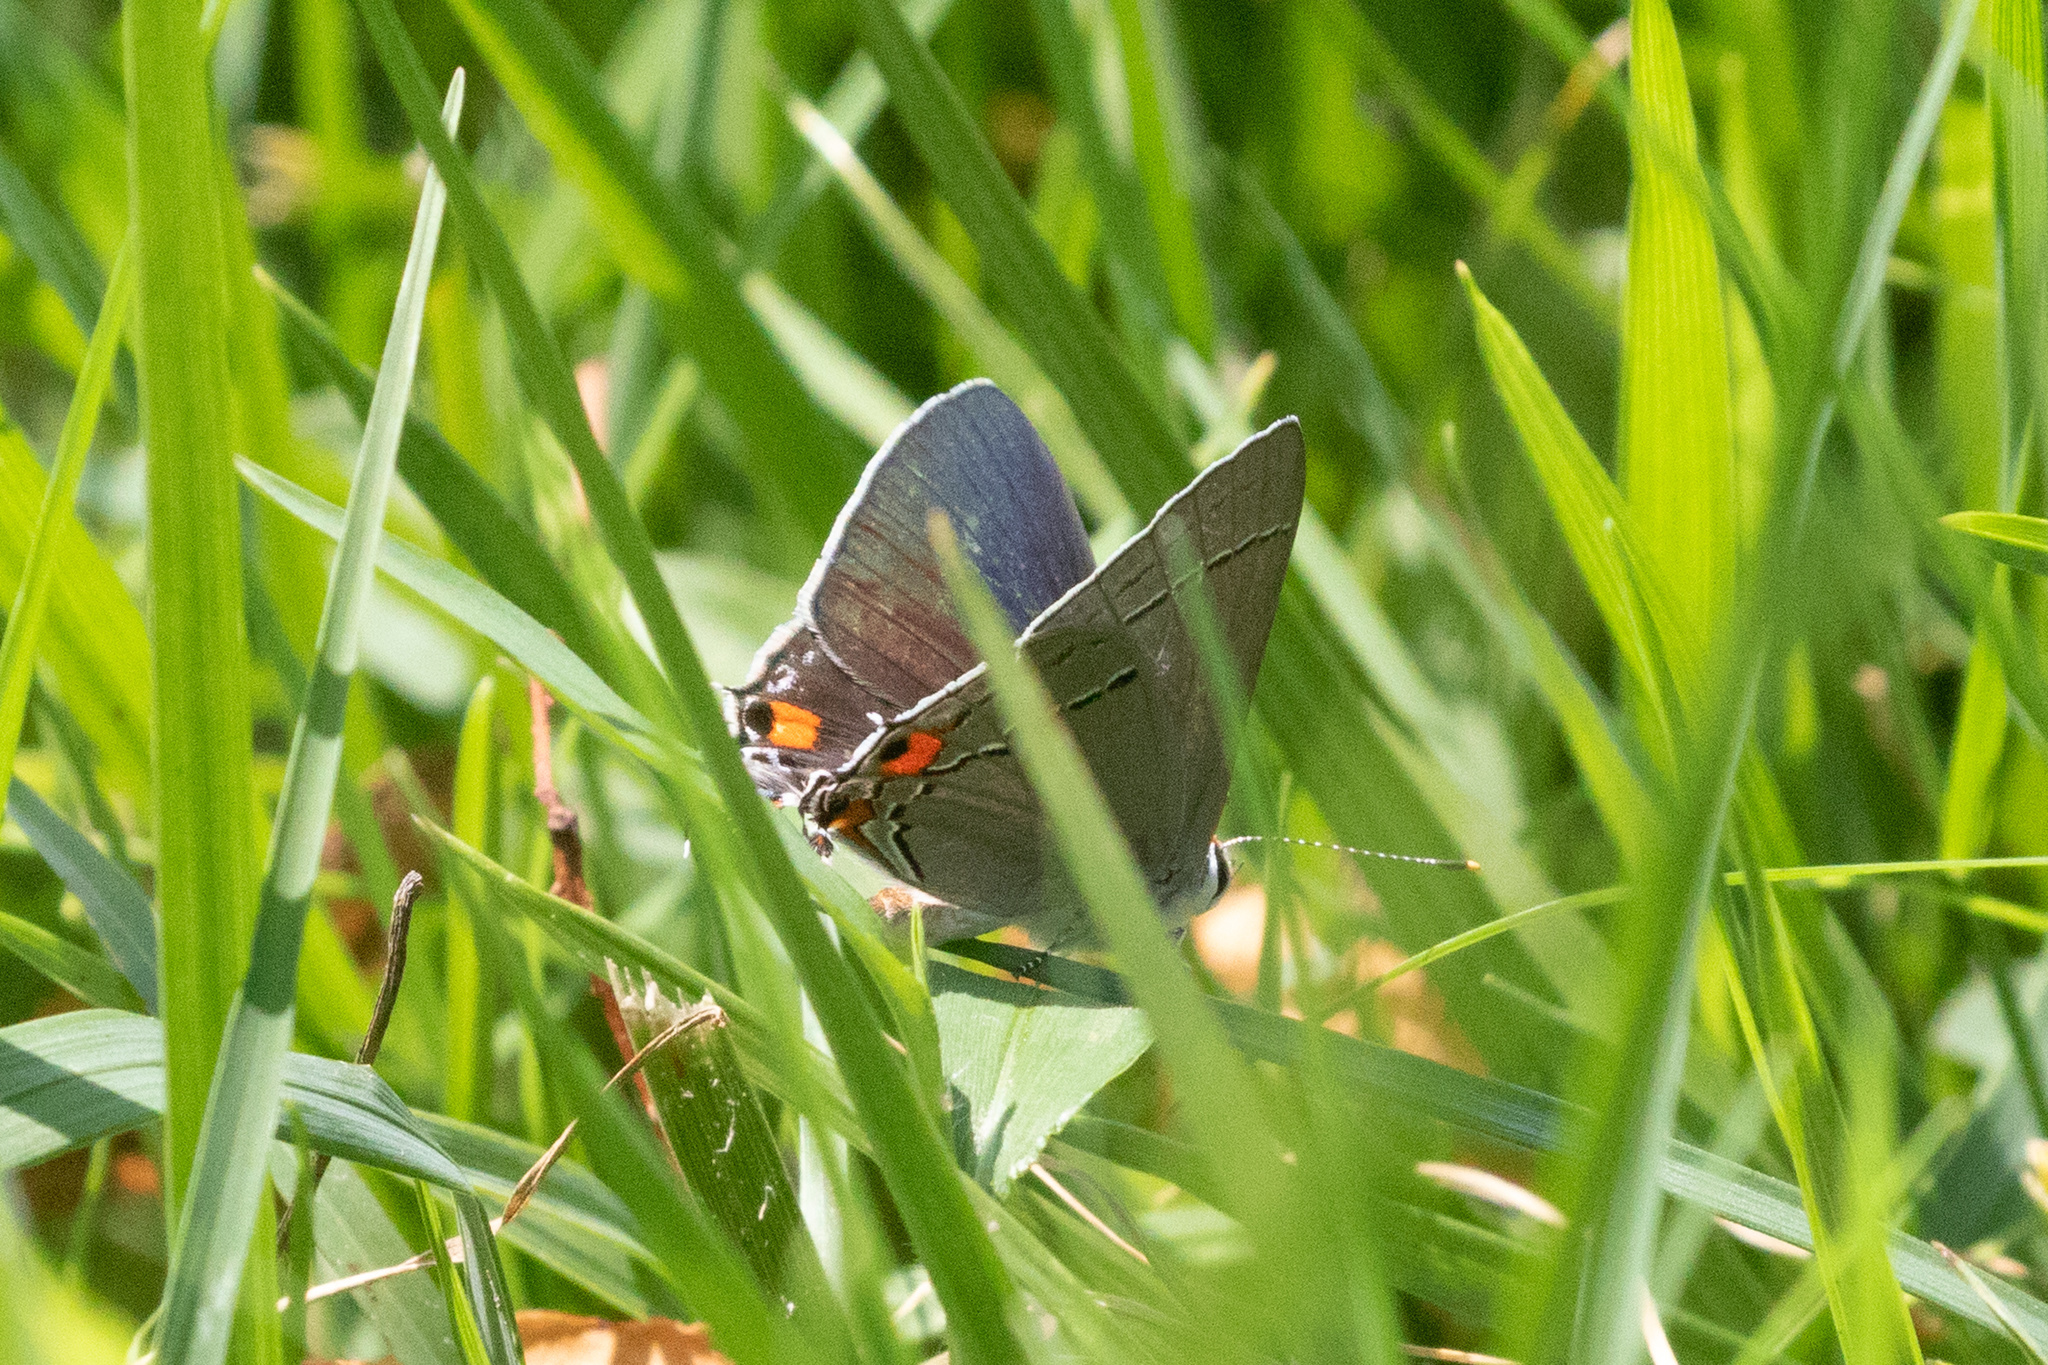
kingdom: Animalia
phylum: Arthropoda
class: Insecta
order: Lepidoptera
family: Lycaenidae
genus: Strymon
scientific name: Strymon melinus
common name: Gray hairstreak
